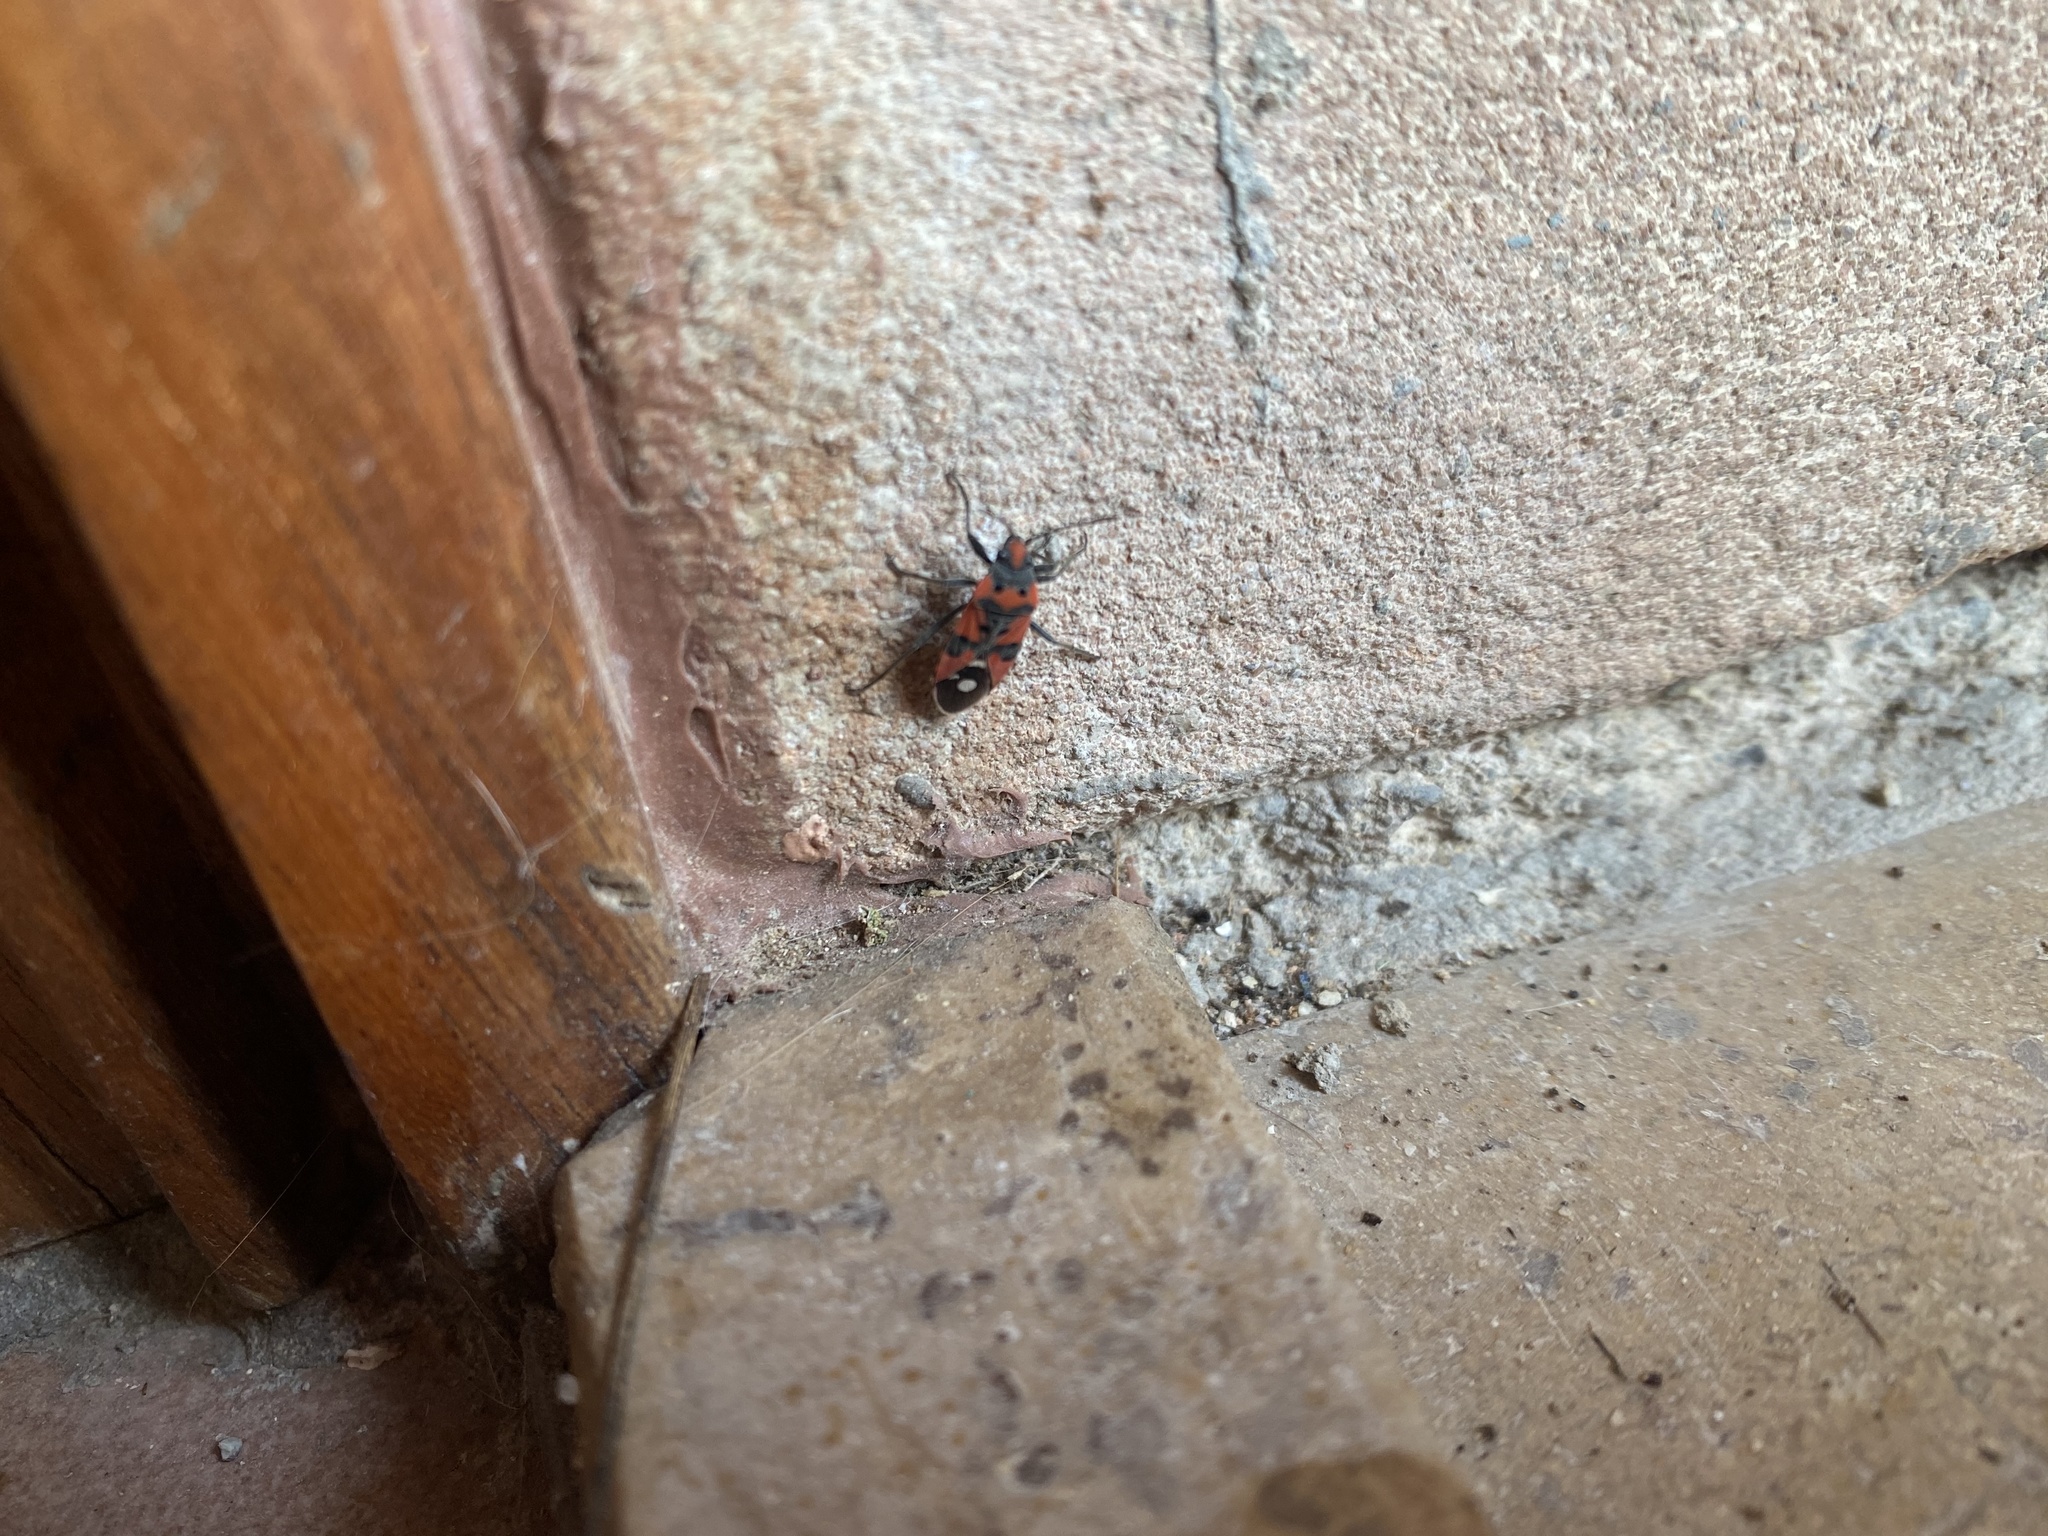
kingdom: Animalia
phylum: Arthropoda
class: Insecta
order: Hemiptera
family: Lygaeidae
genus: Lygaeus
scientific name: Lygaeus equestris
